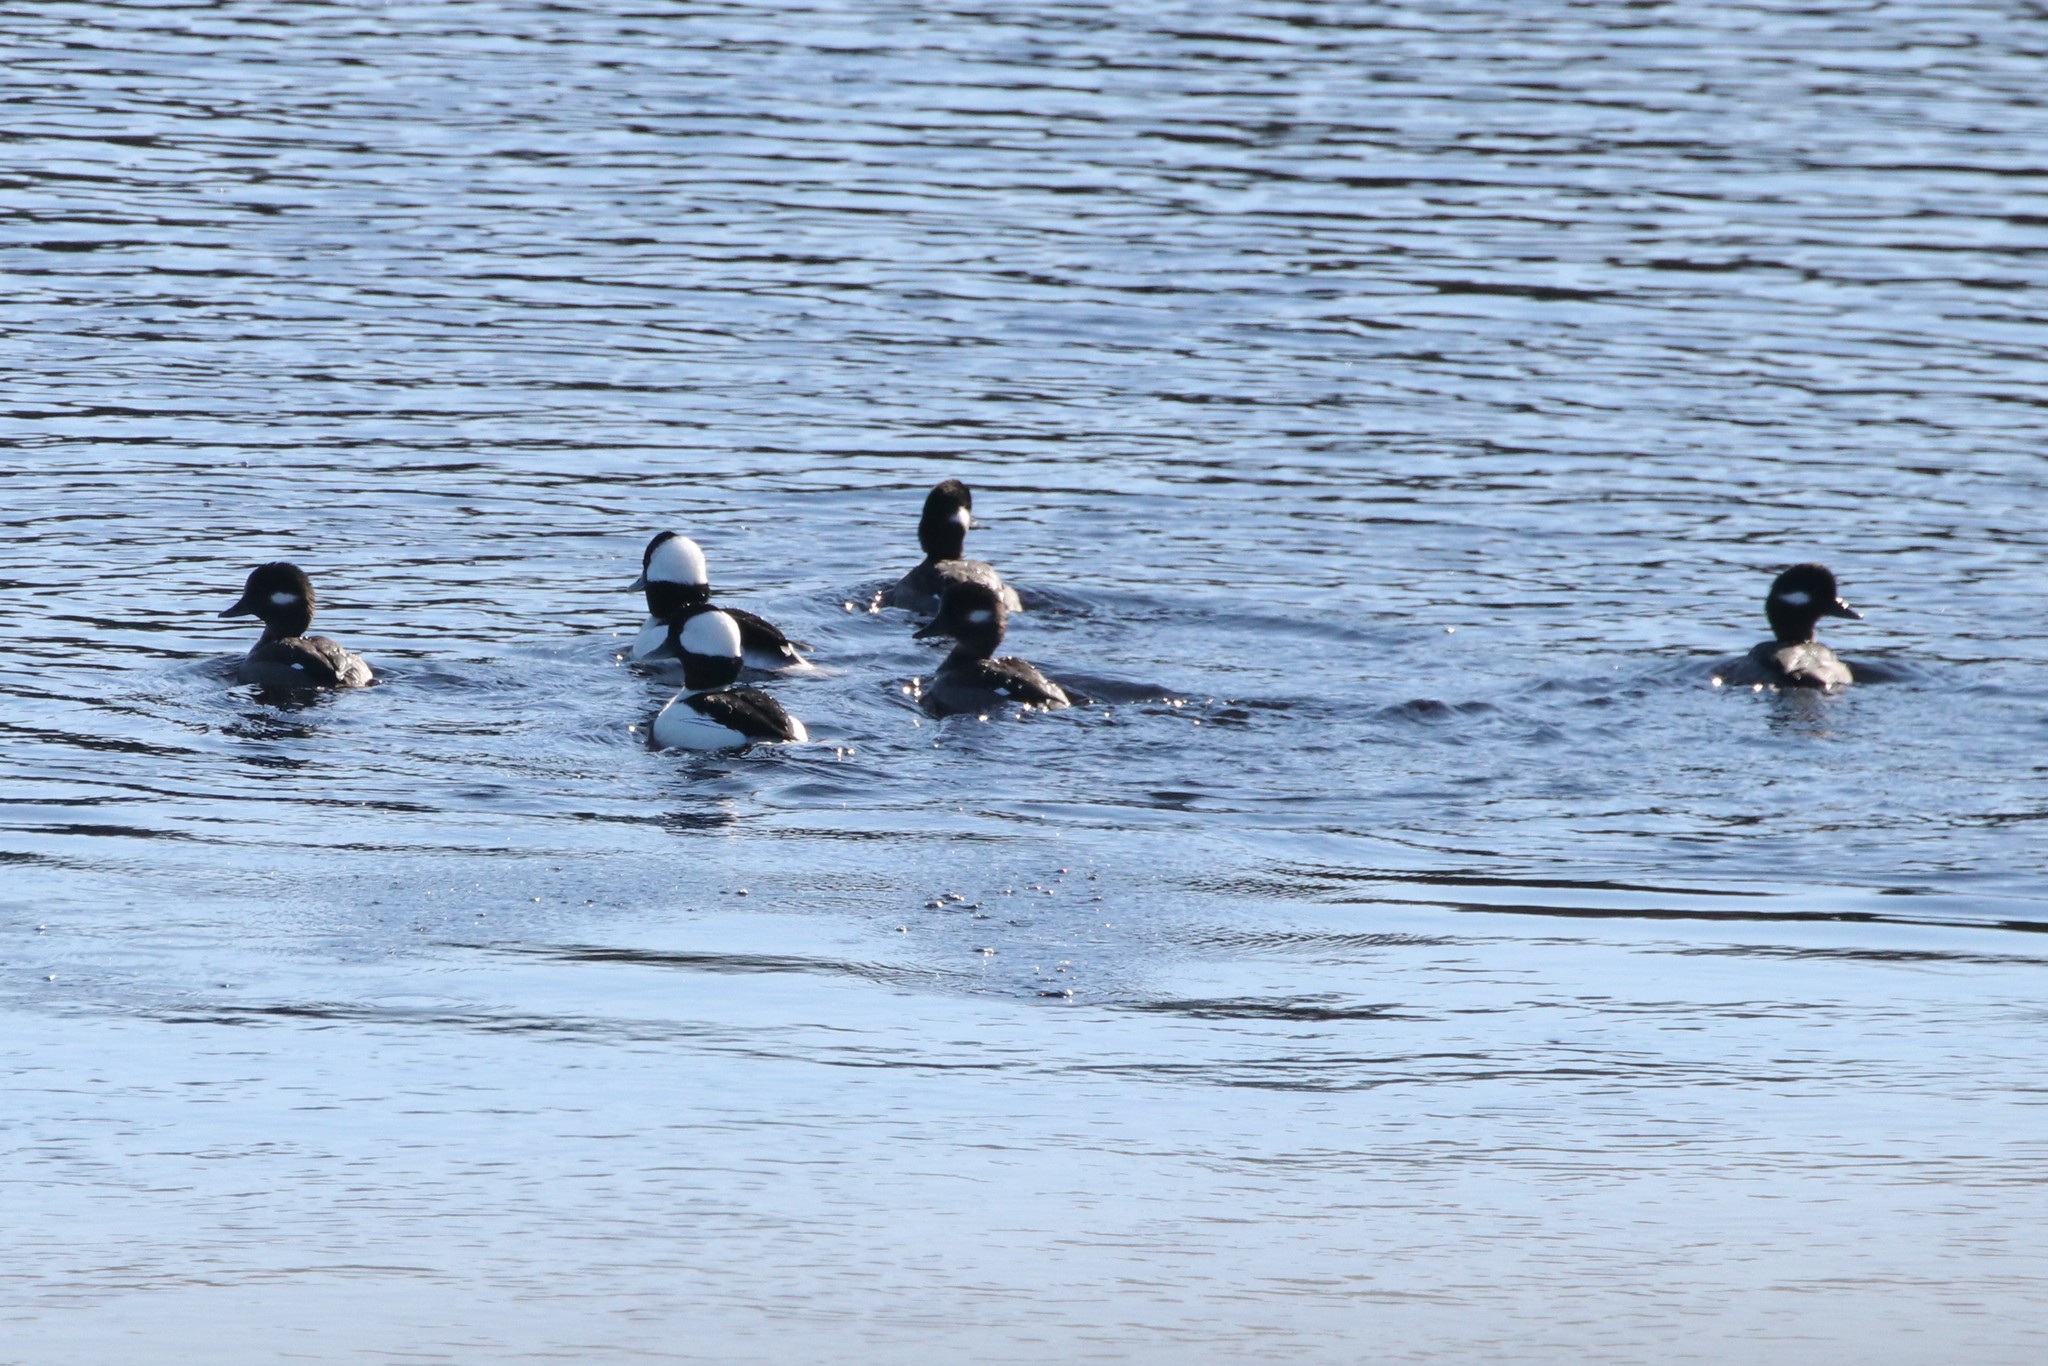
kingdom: Animalia
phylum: Chordata
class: Aves
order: Anseriformes
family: Anatidae
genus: Bucephala
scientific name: Bucephala albeola
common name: Bufflehead
